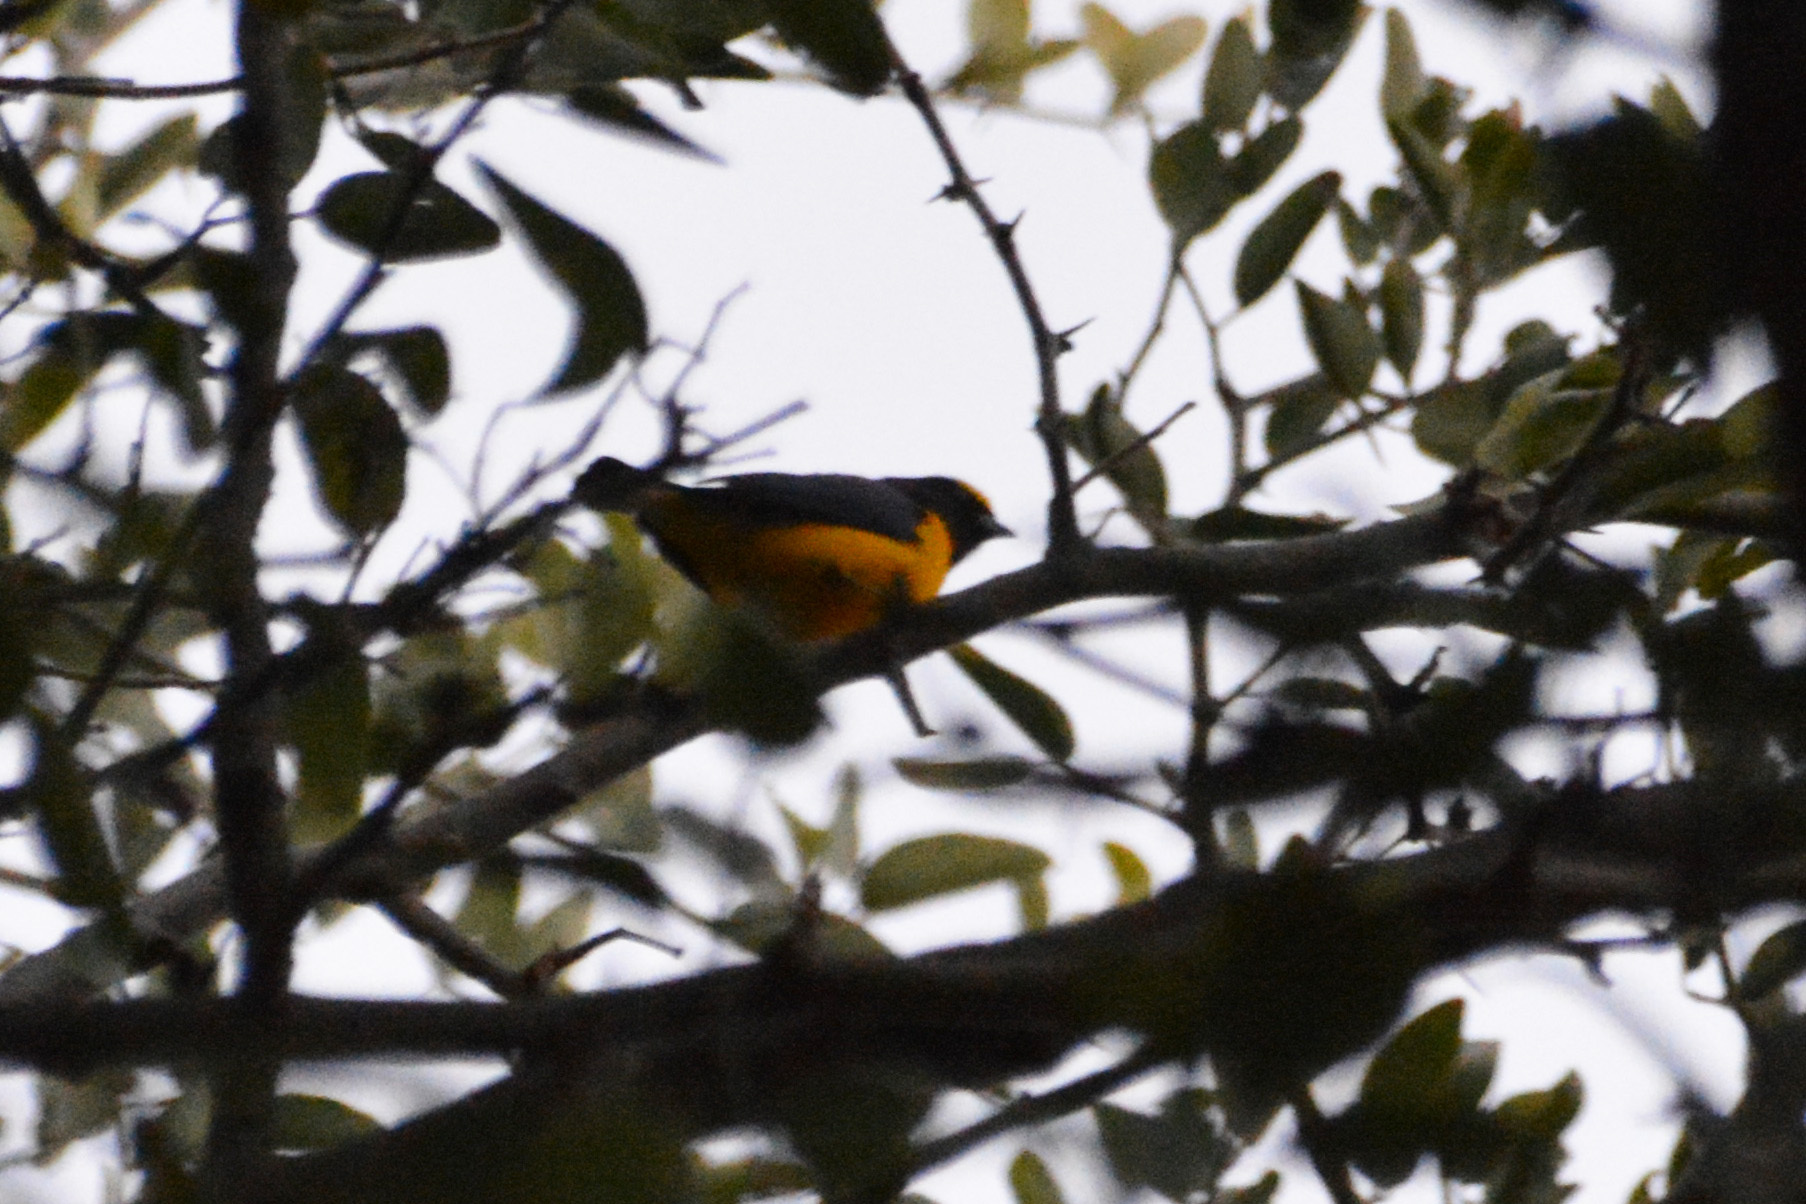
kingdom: Animalia
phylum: Chordata
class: Aves
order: Passeriformes
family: Fringillidae
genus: Euphonia
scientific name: Euphonia chlorotica
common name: Purple-throated euphonia
